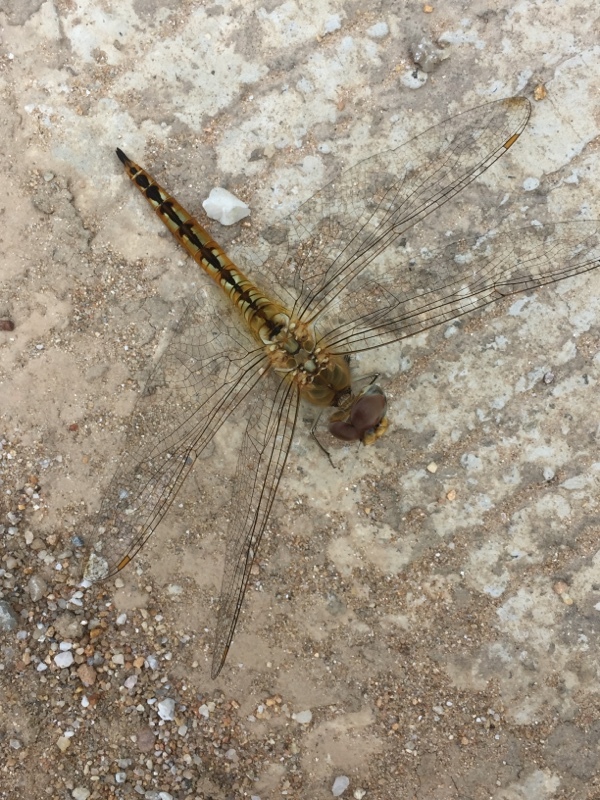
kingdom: Animalia
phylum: Arthropoda
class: Insecta
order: Odonata
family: Libellulidae
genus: Pantala
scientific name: Pantala flavescens
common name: Wandering glider
